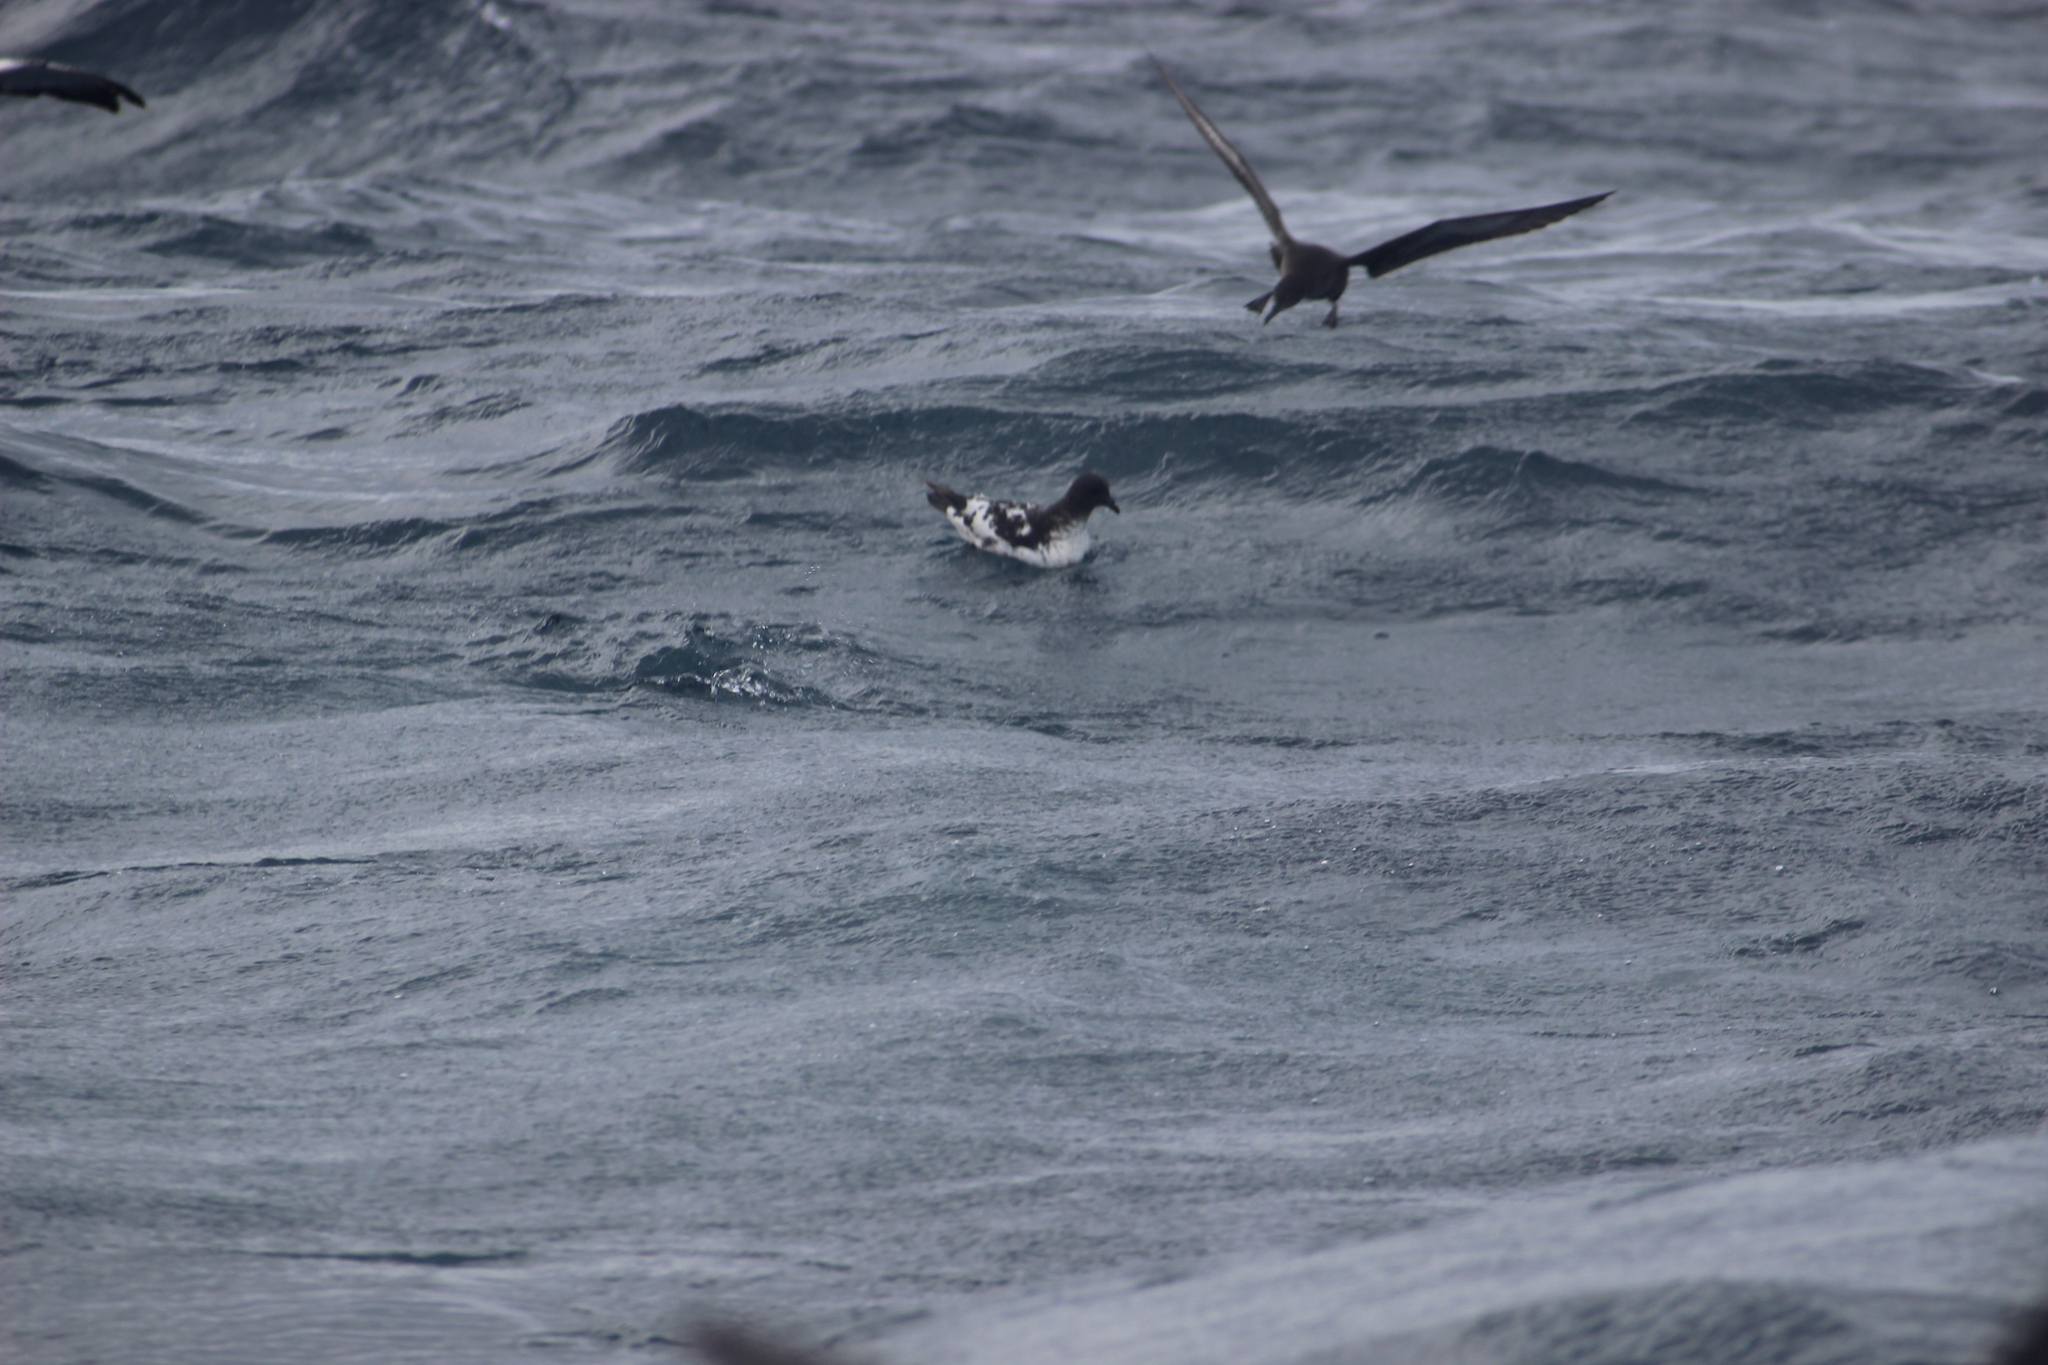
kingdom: Animalia
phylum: Chordata
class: Aves
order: Procellariiformes
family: Procellariidae
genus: Daption
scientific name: Daption capense
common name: Cape petrel
